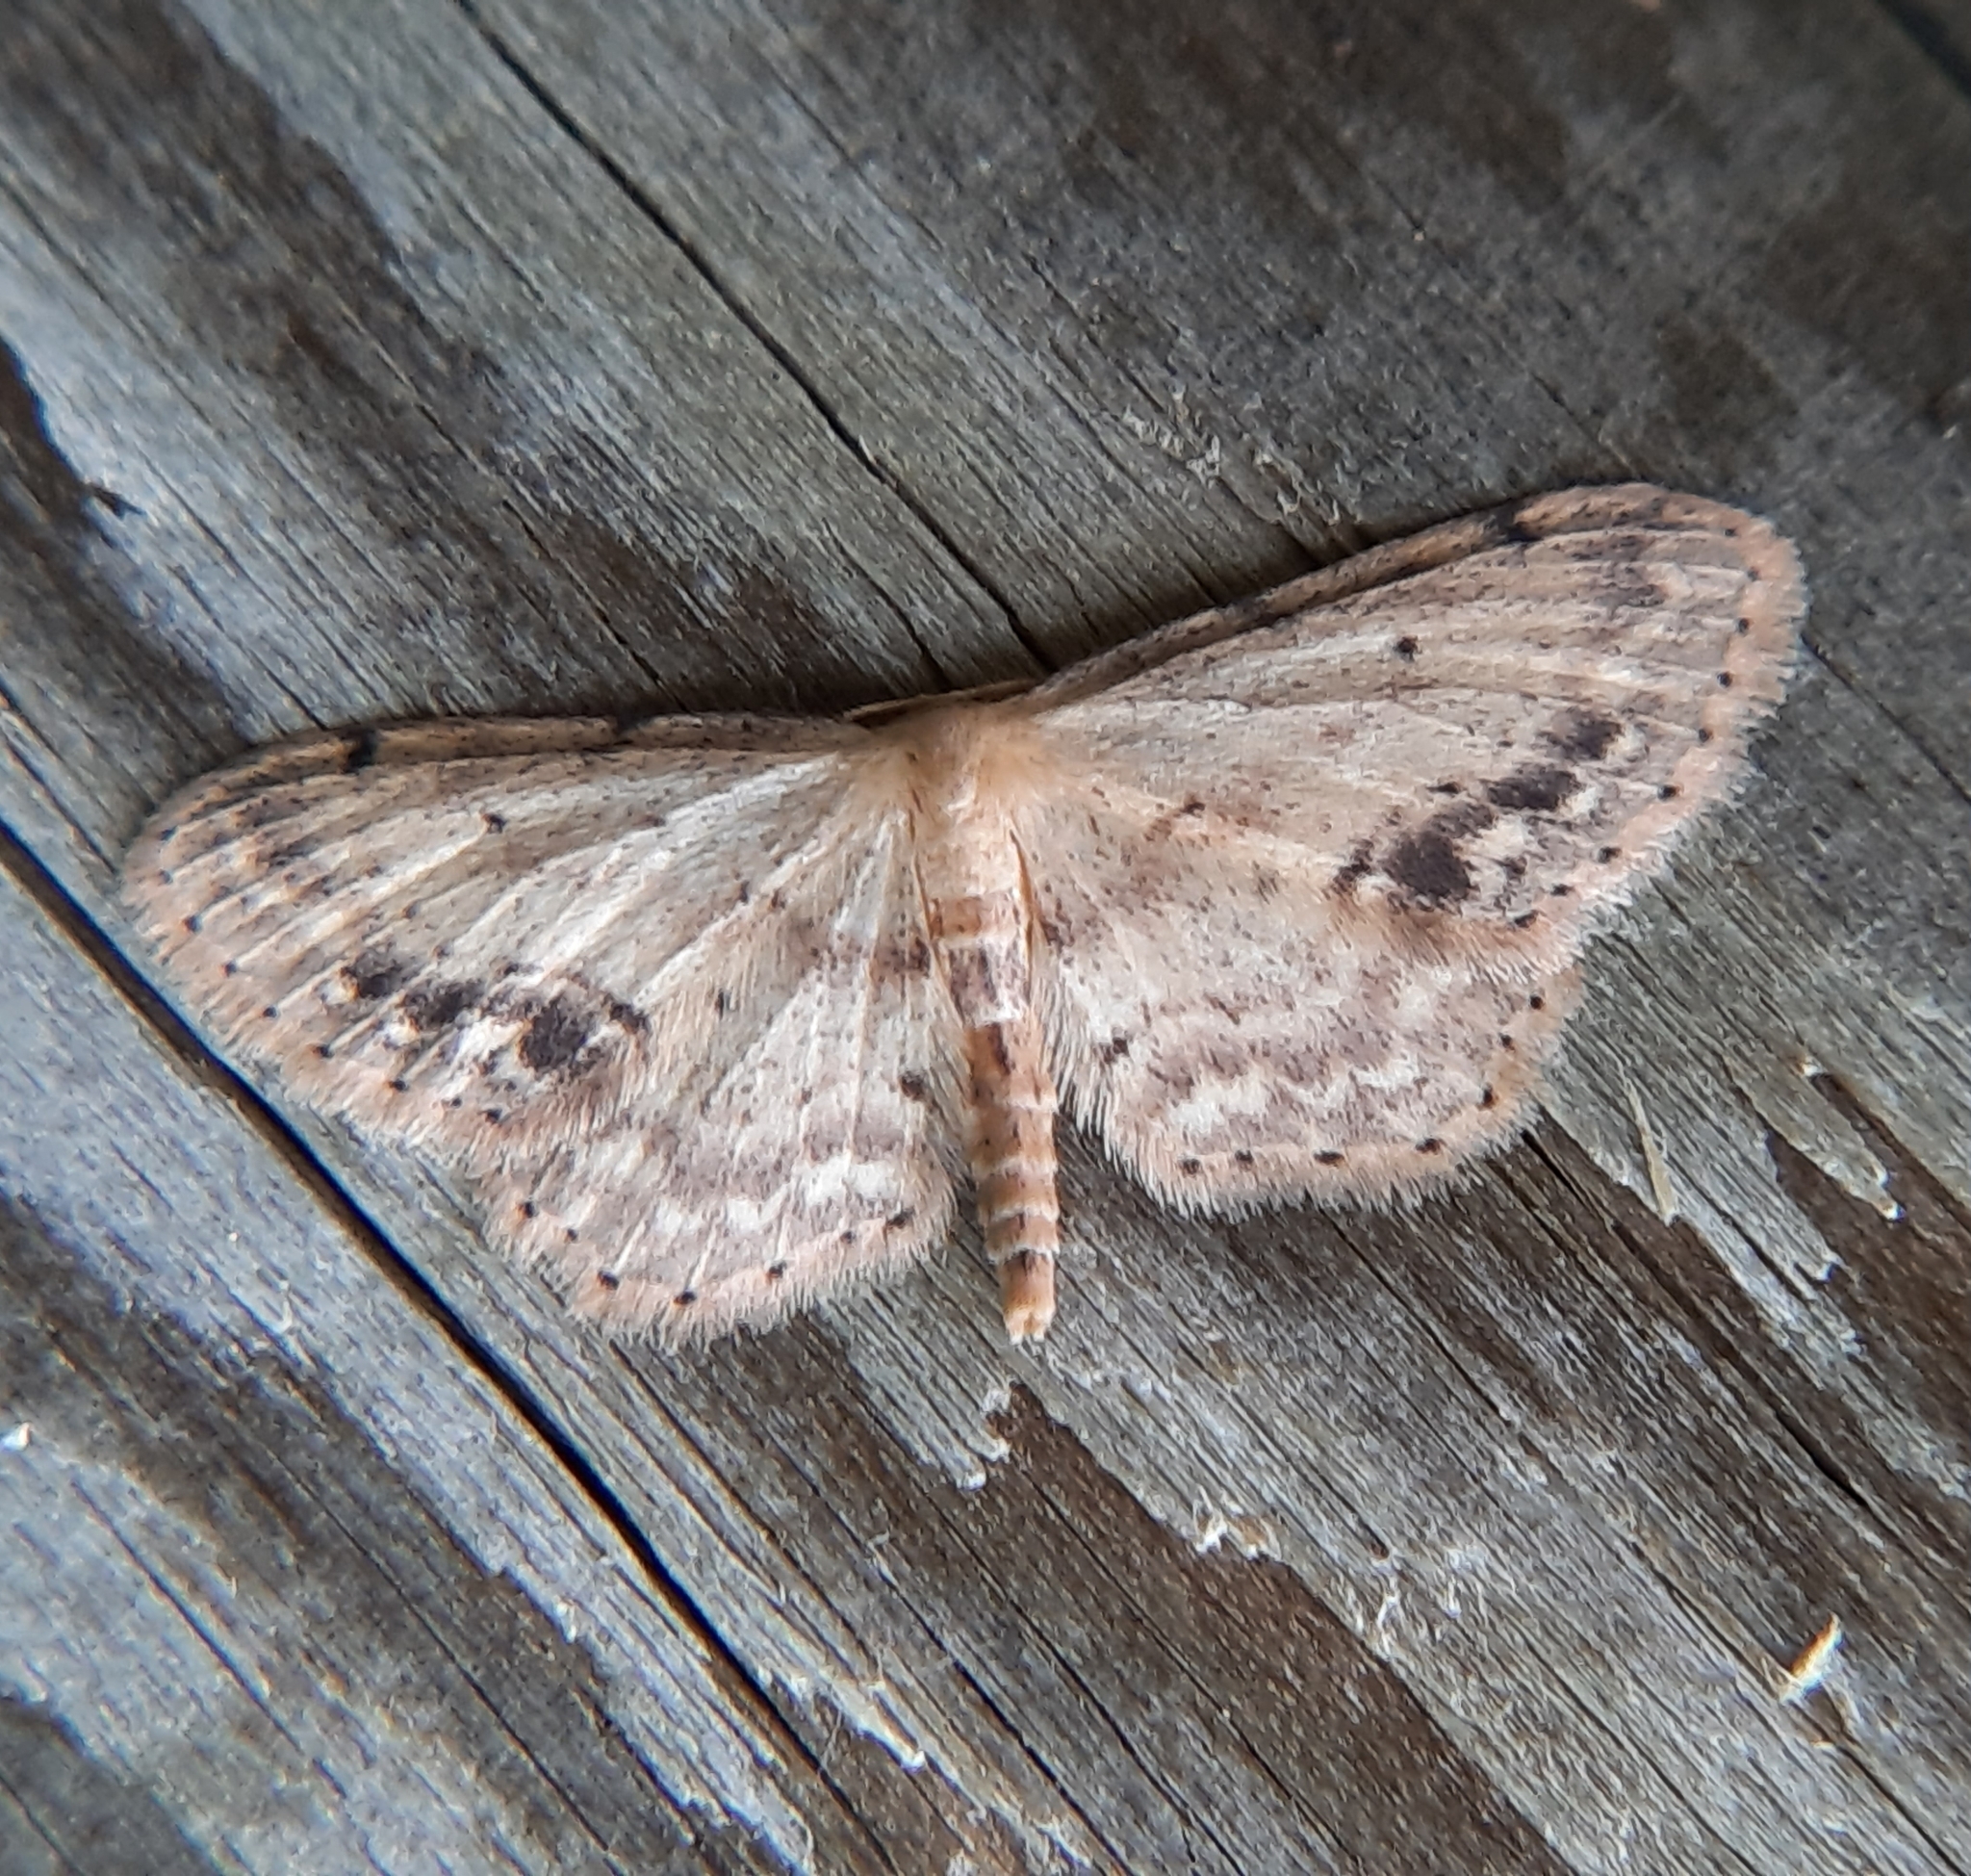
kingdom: Animalia
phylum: Arthropoda
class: Insecta
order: Lepidoptera
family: Geometridae
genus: Idaea
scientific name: Idaea dimidiata
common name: Single-dotted wave
